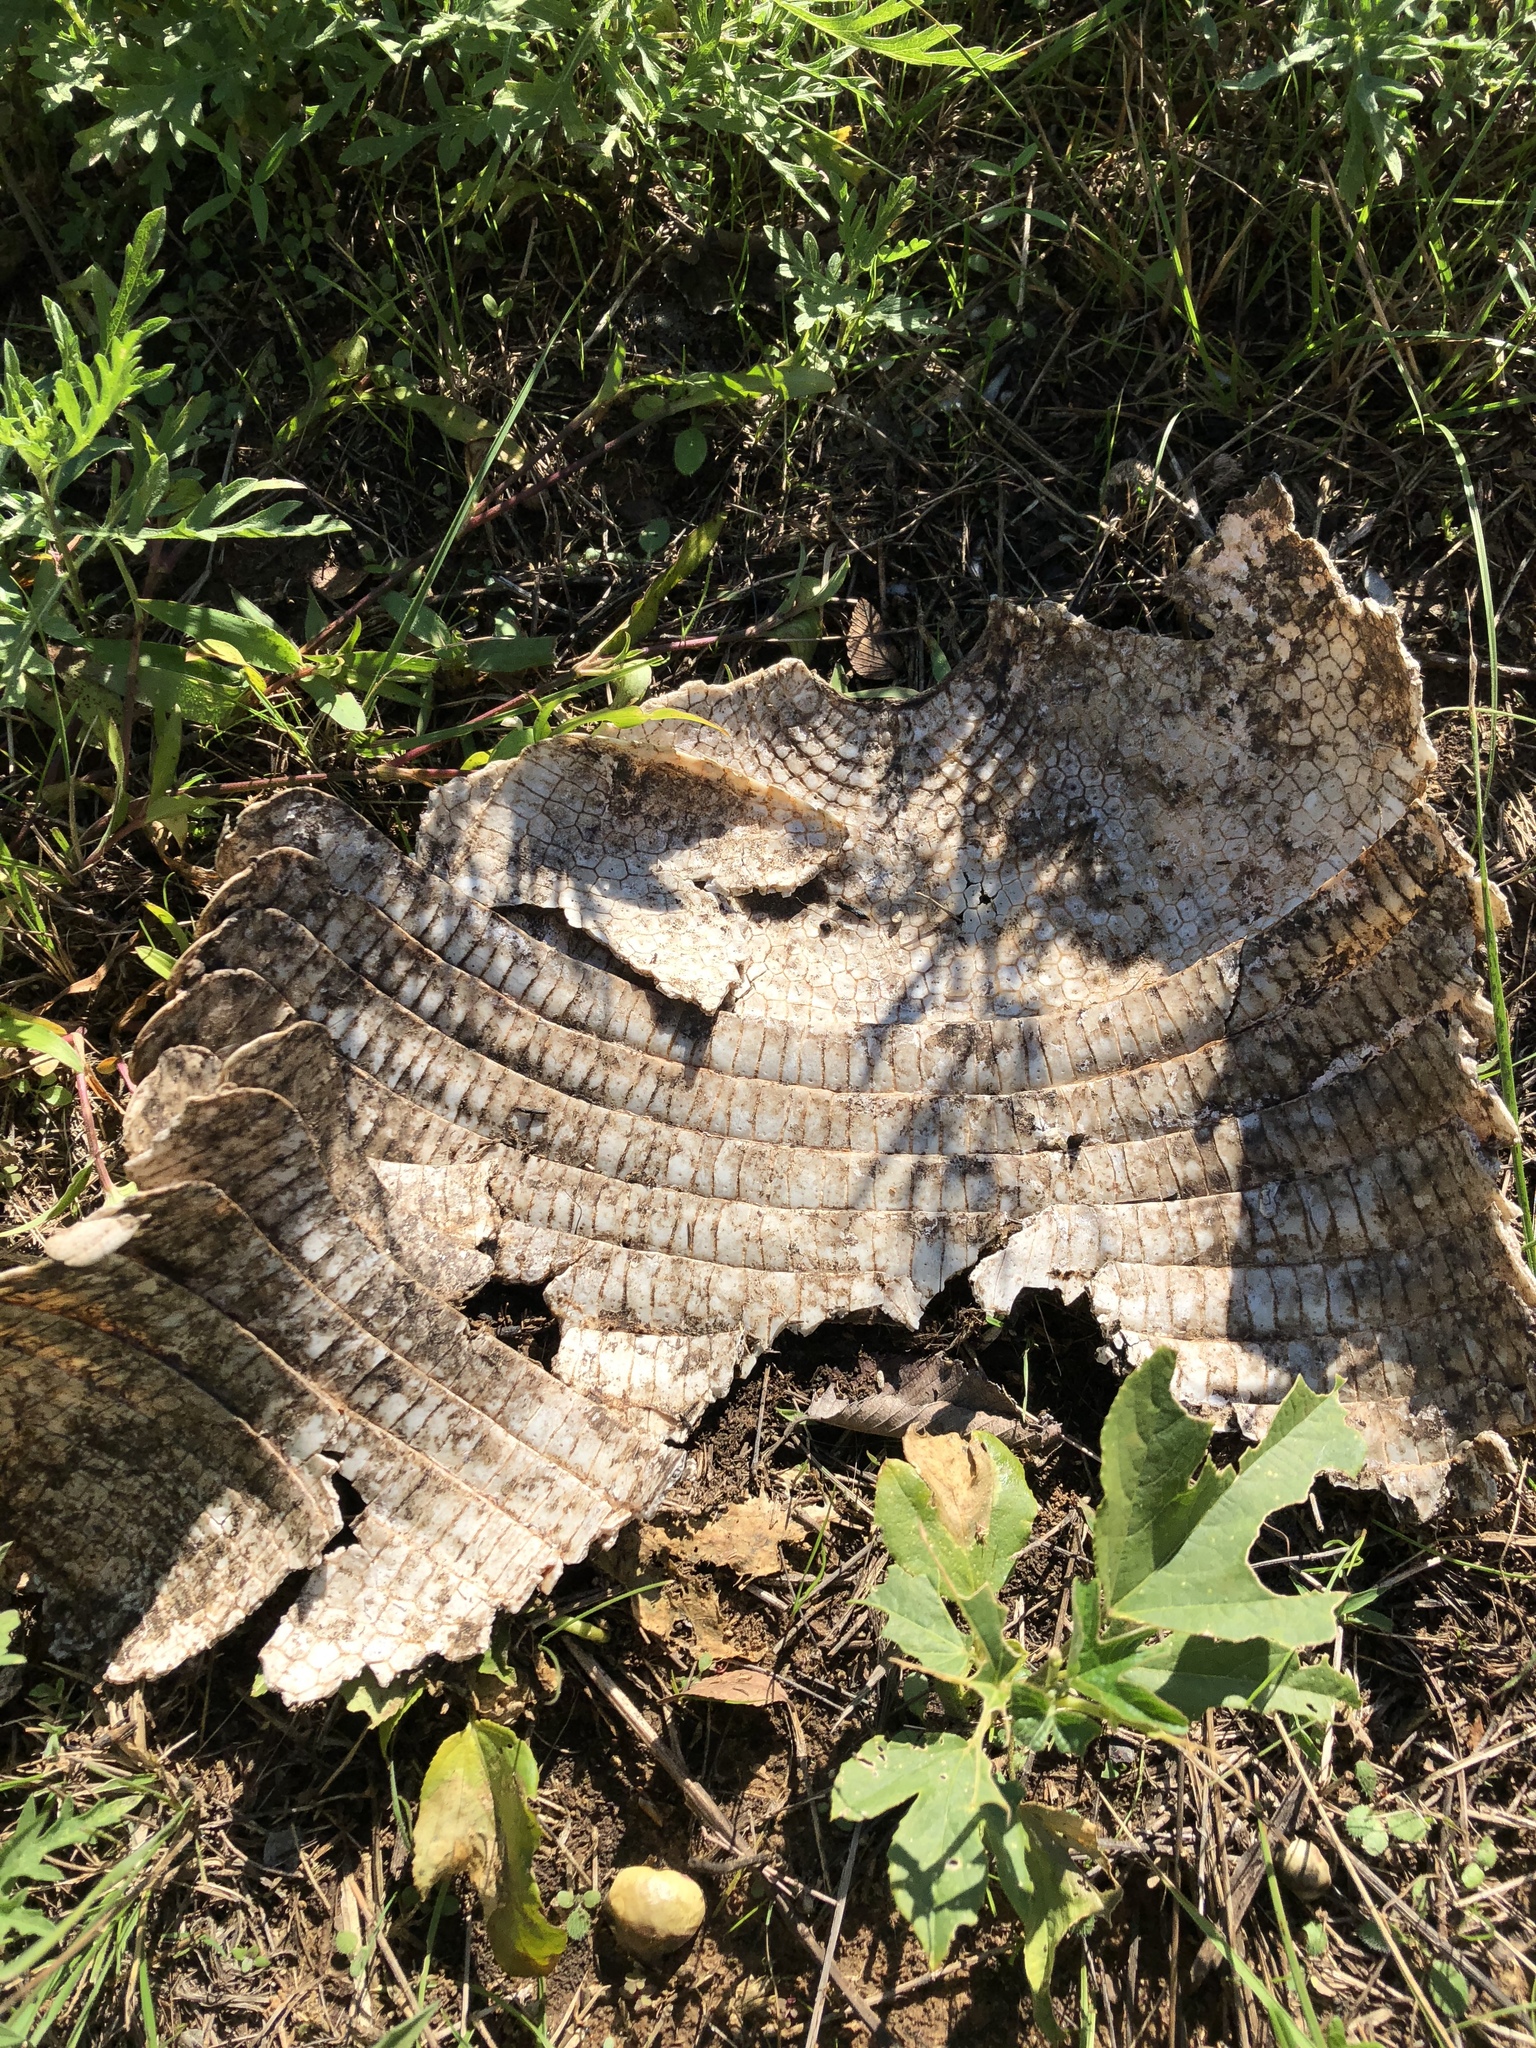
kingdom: Animalia
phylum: Chordata
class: Mammalia
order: Cingulata
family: Dasypodidae
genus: Dasypus
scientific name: Dasypus novemcinctus
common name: Nine-banded armadillo
